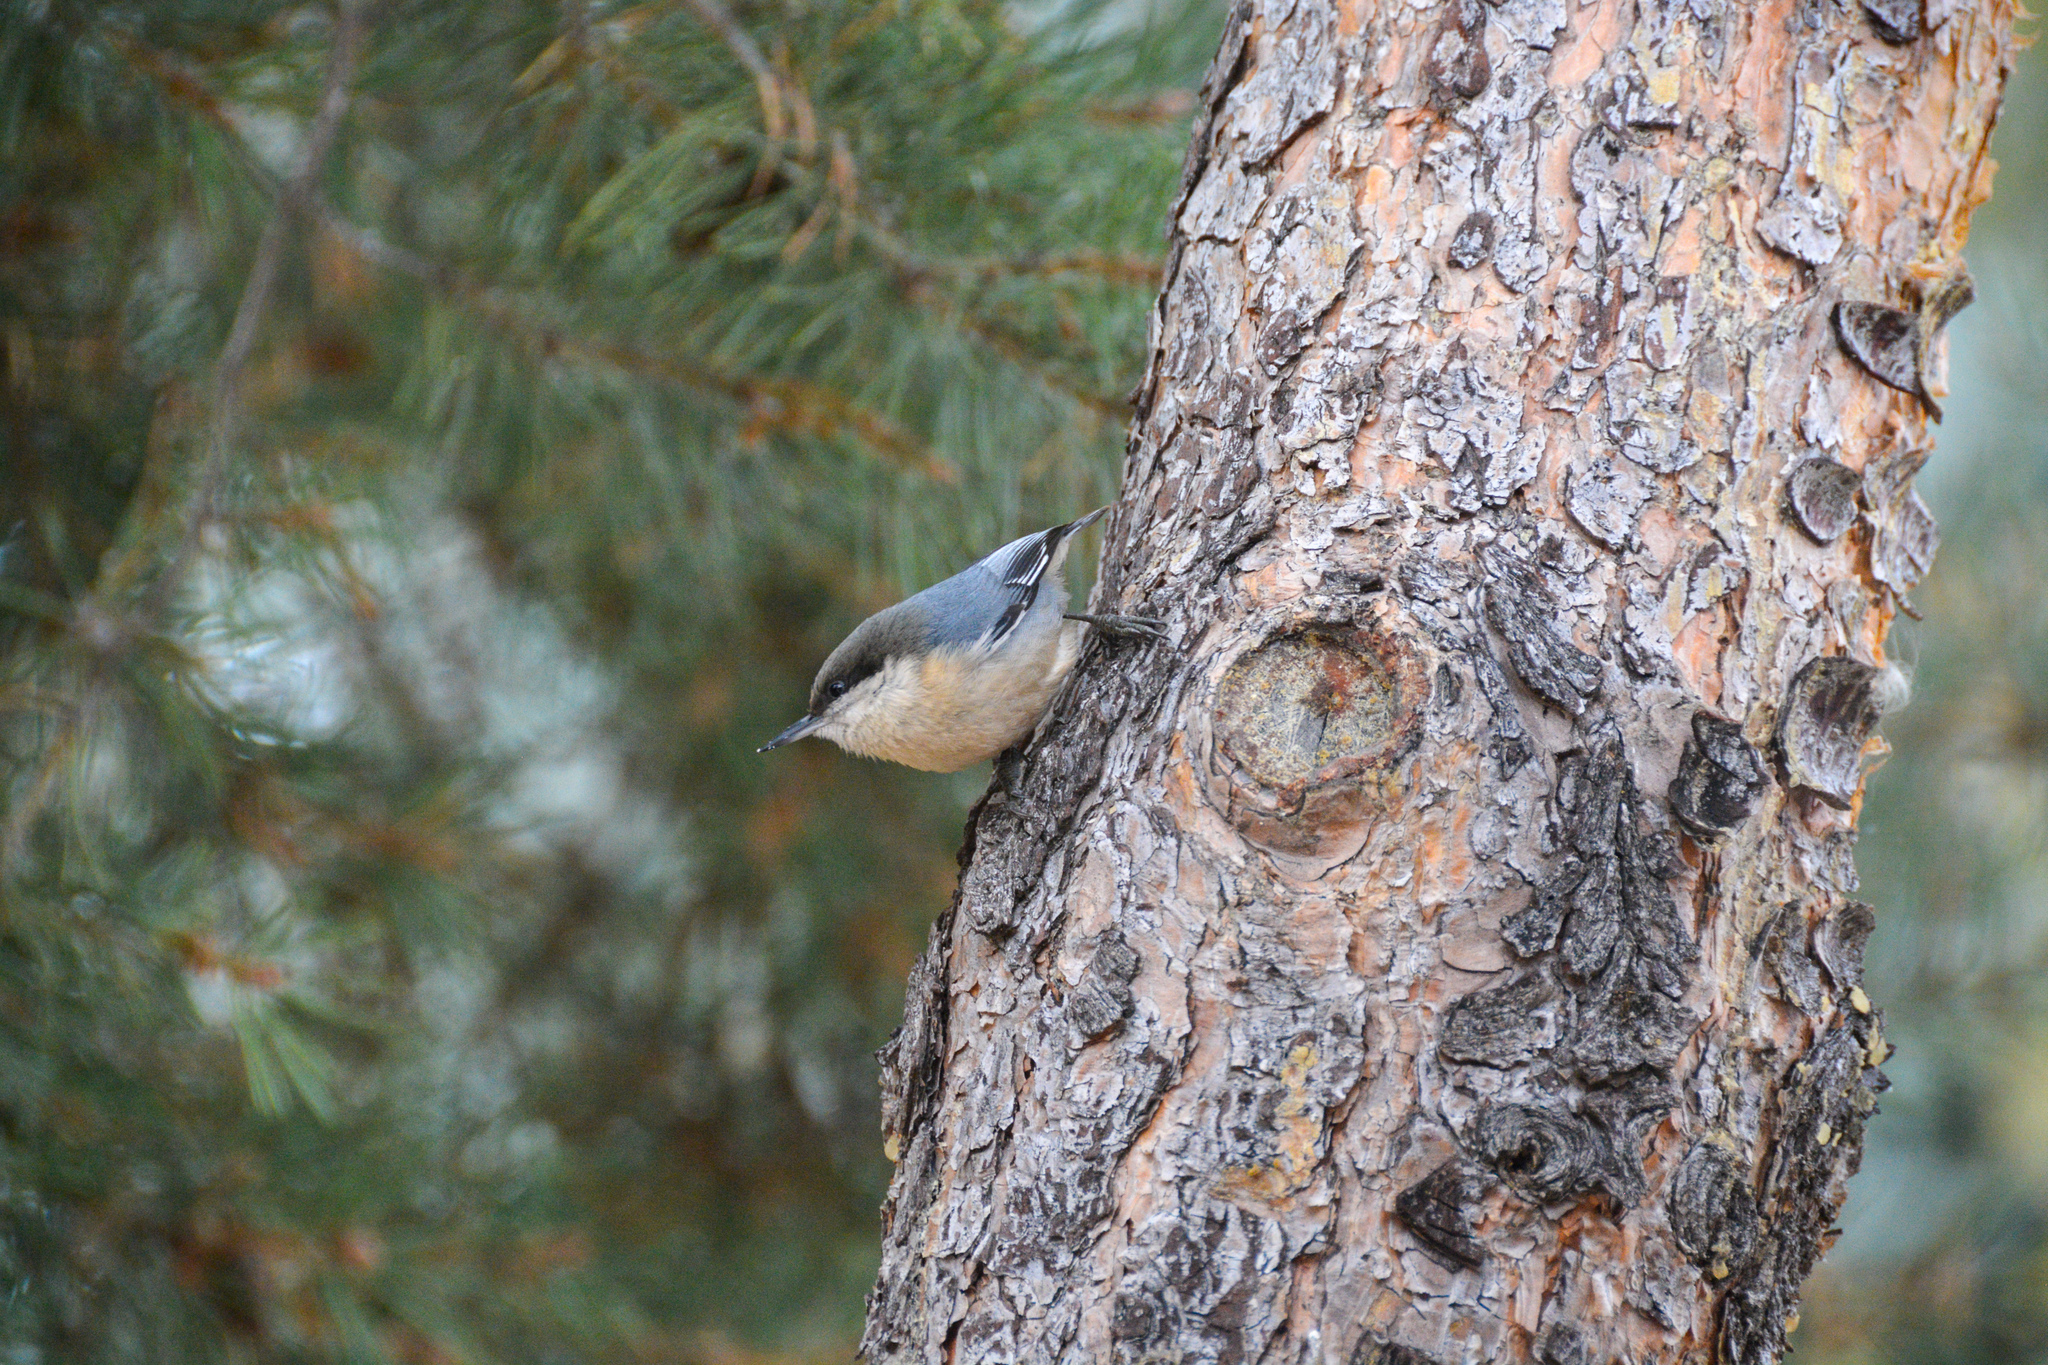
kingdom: Animalia
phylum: Chordata
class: Aves
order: Passeriformes
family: Sittidae
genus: Sitta
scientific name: Sitta pygmaea
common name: Pygmy nuthatch
